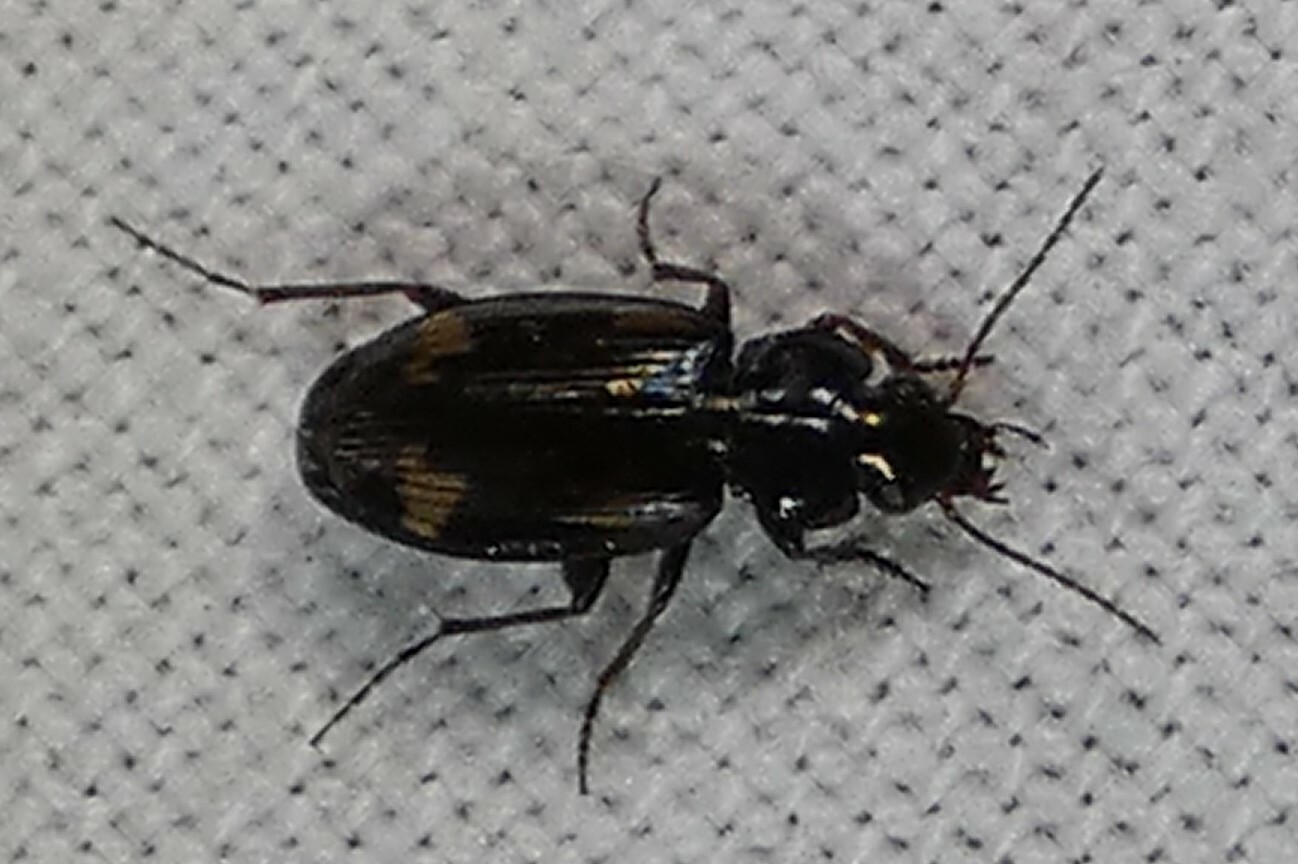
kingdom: Animalia
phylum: Arthropoda
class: Insecta
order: Coleoptera
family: Carabidae
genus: Tetragonoderus
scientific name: Tetragonoderus intersectus
